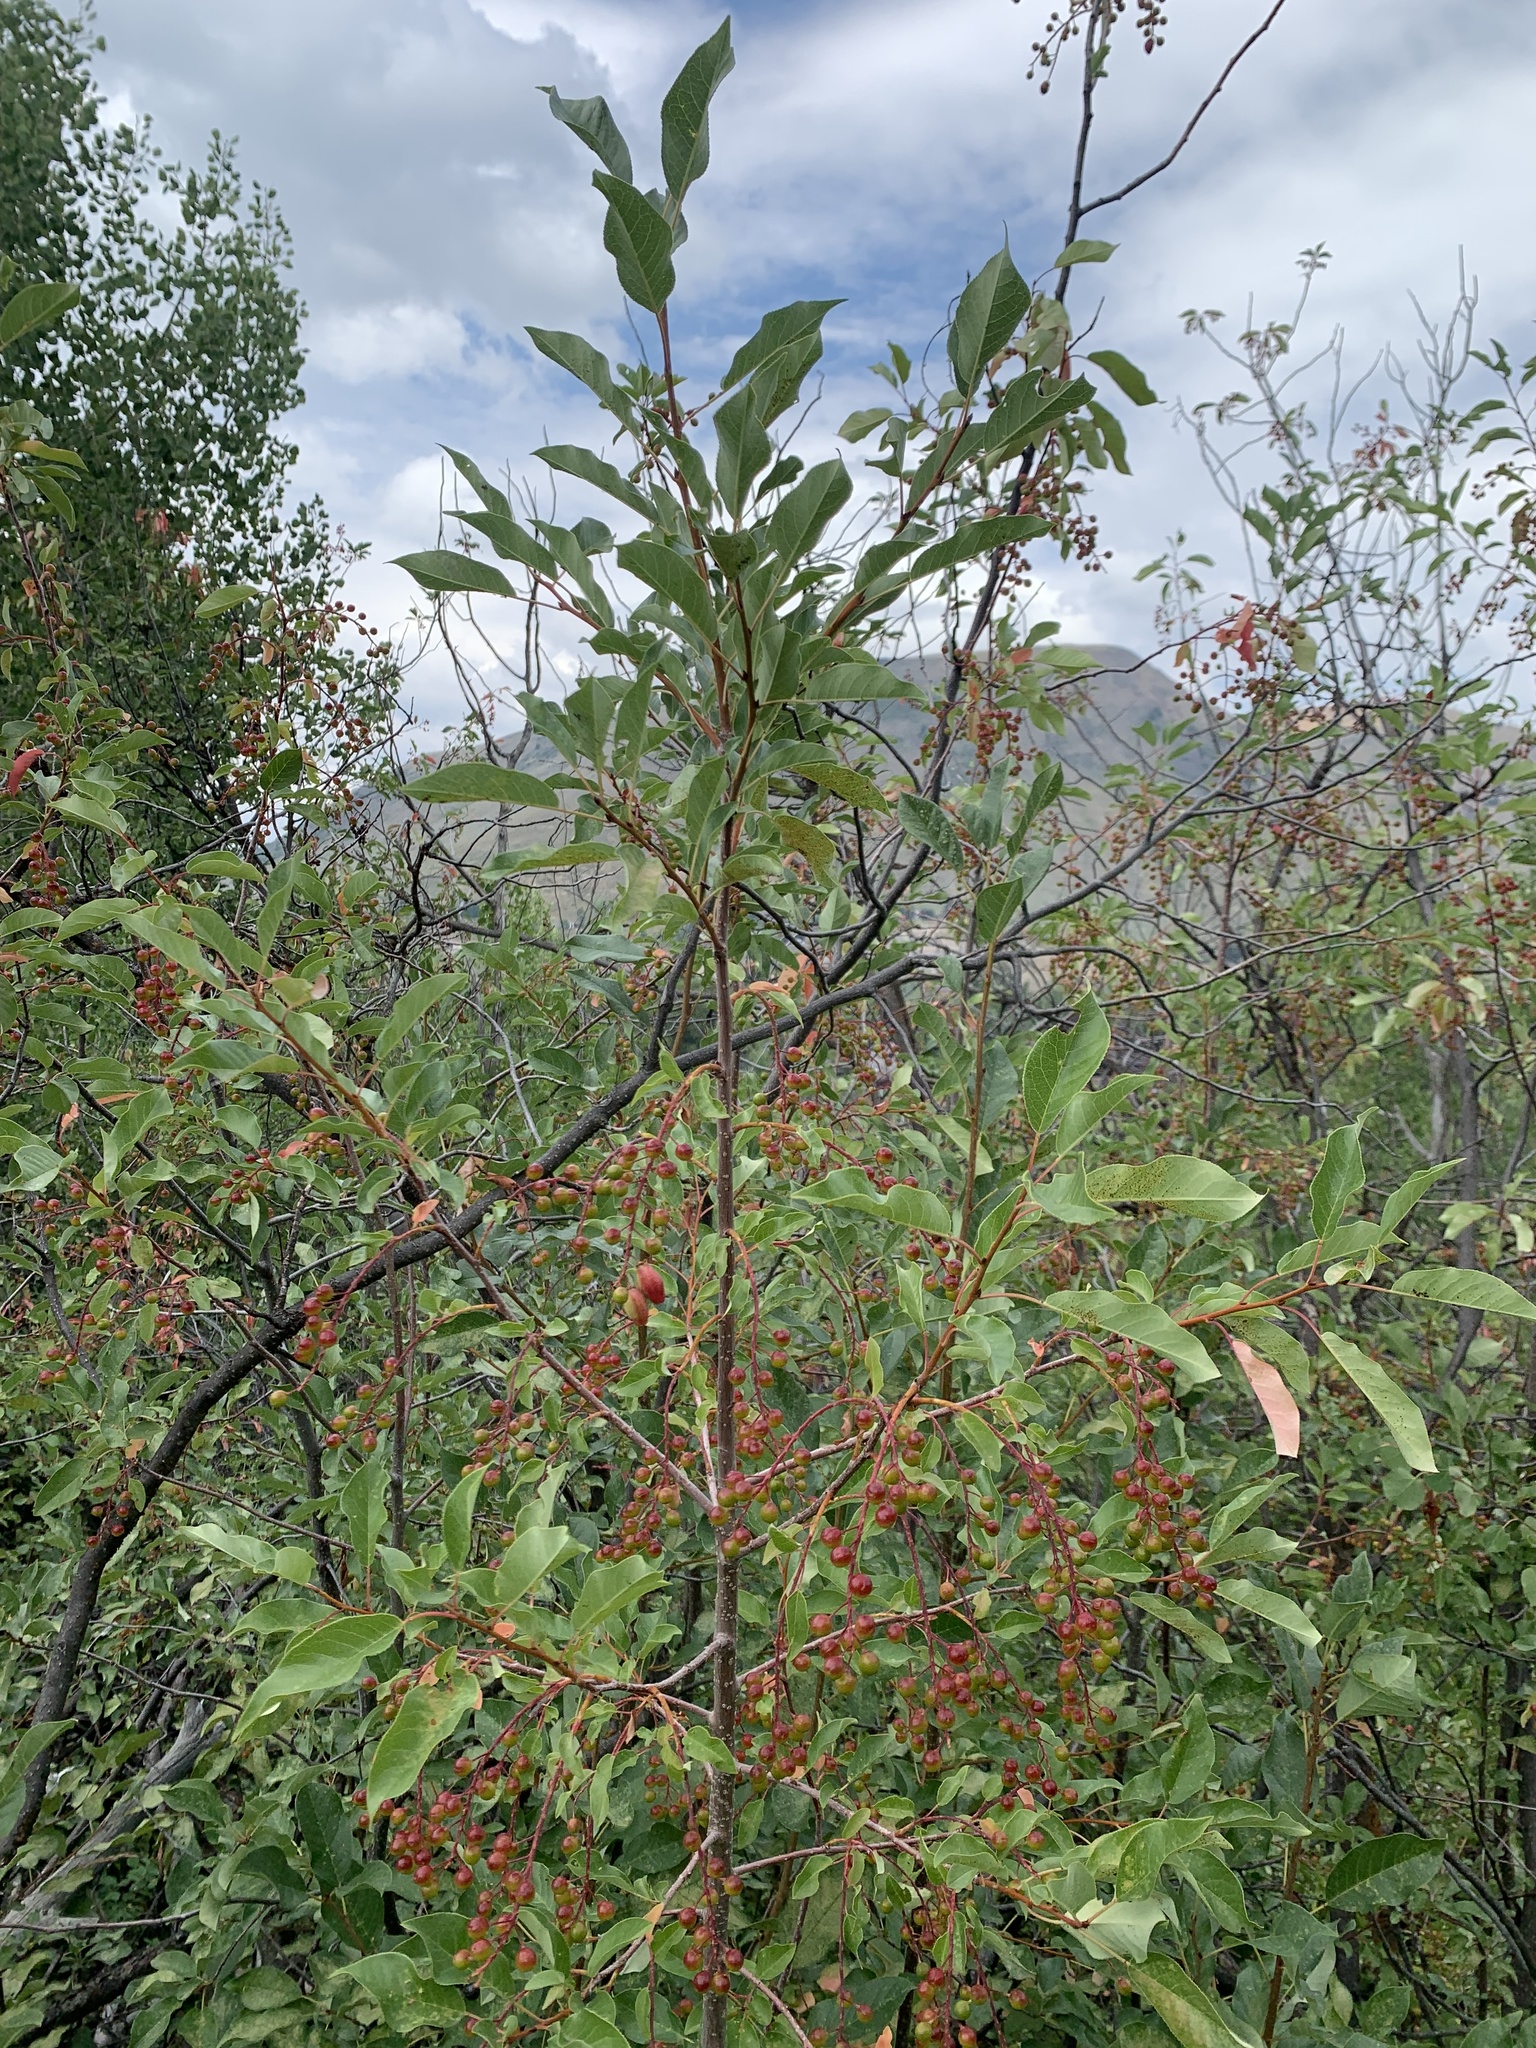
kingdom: Plantae
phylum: Tracheophyta
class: Magnoliopsida
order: Rosales
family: Rosaceae
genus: Prunus
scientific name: Prunus virginiana
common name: Chokecherry
